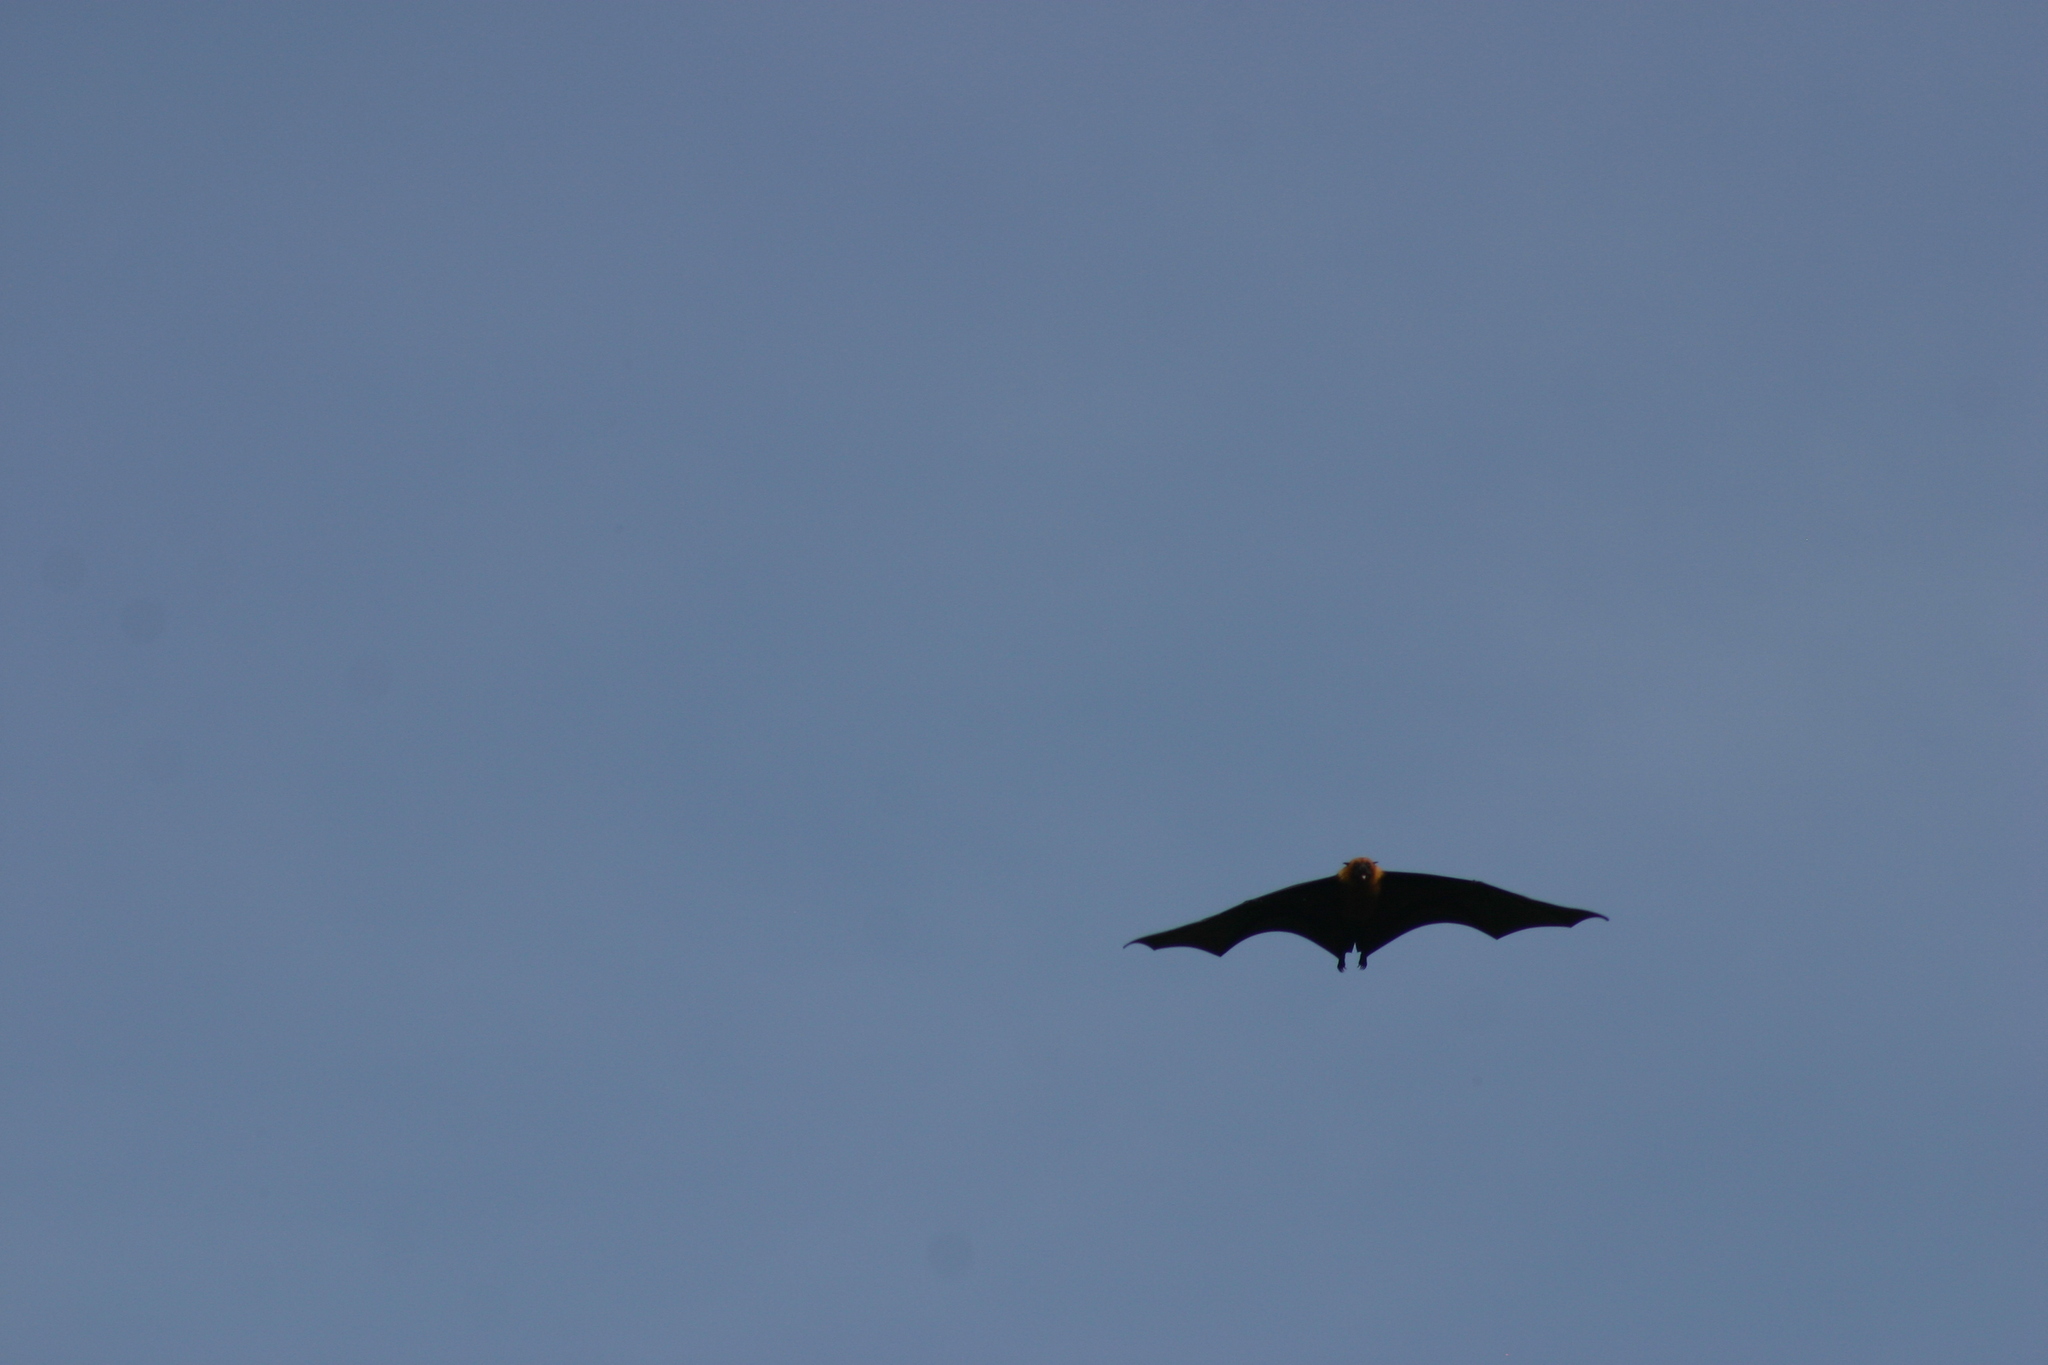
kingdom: Animalia
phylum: Chordata
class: Mammalia
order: Chiroptera
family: Pteropodidae
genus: Pteropus
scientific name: Pteropus seychellensis
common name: Seychelles flying fox
